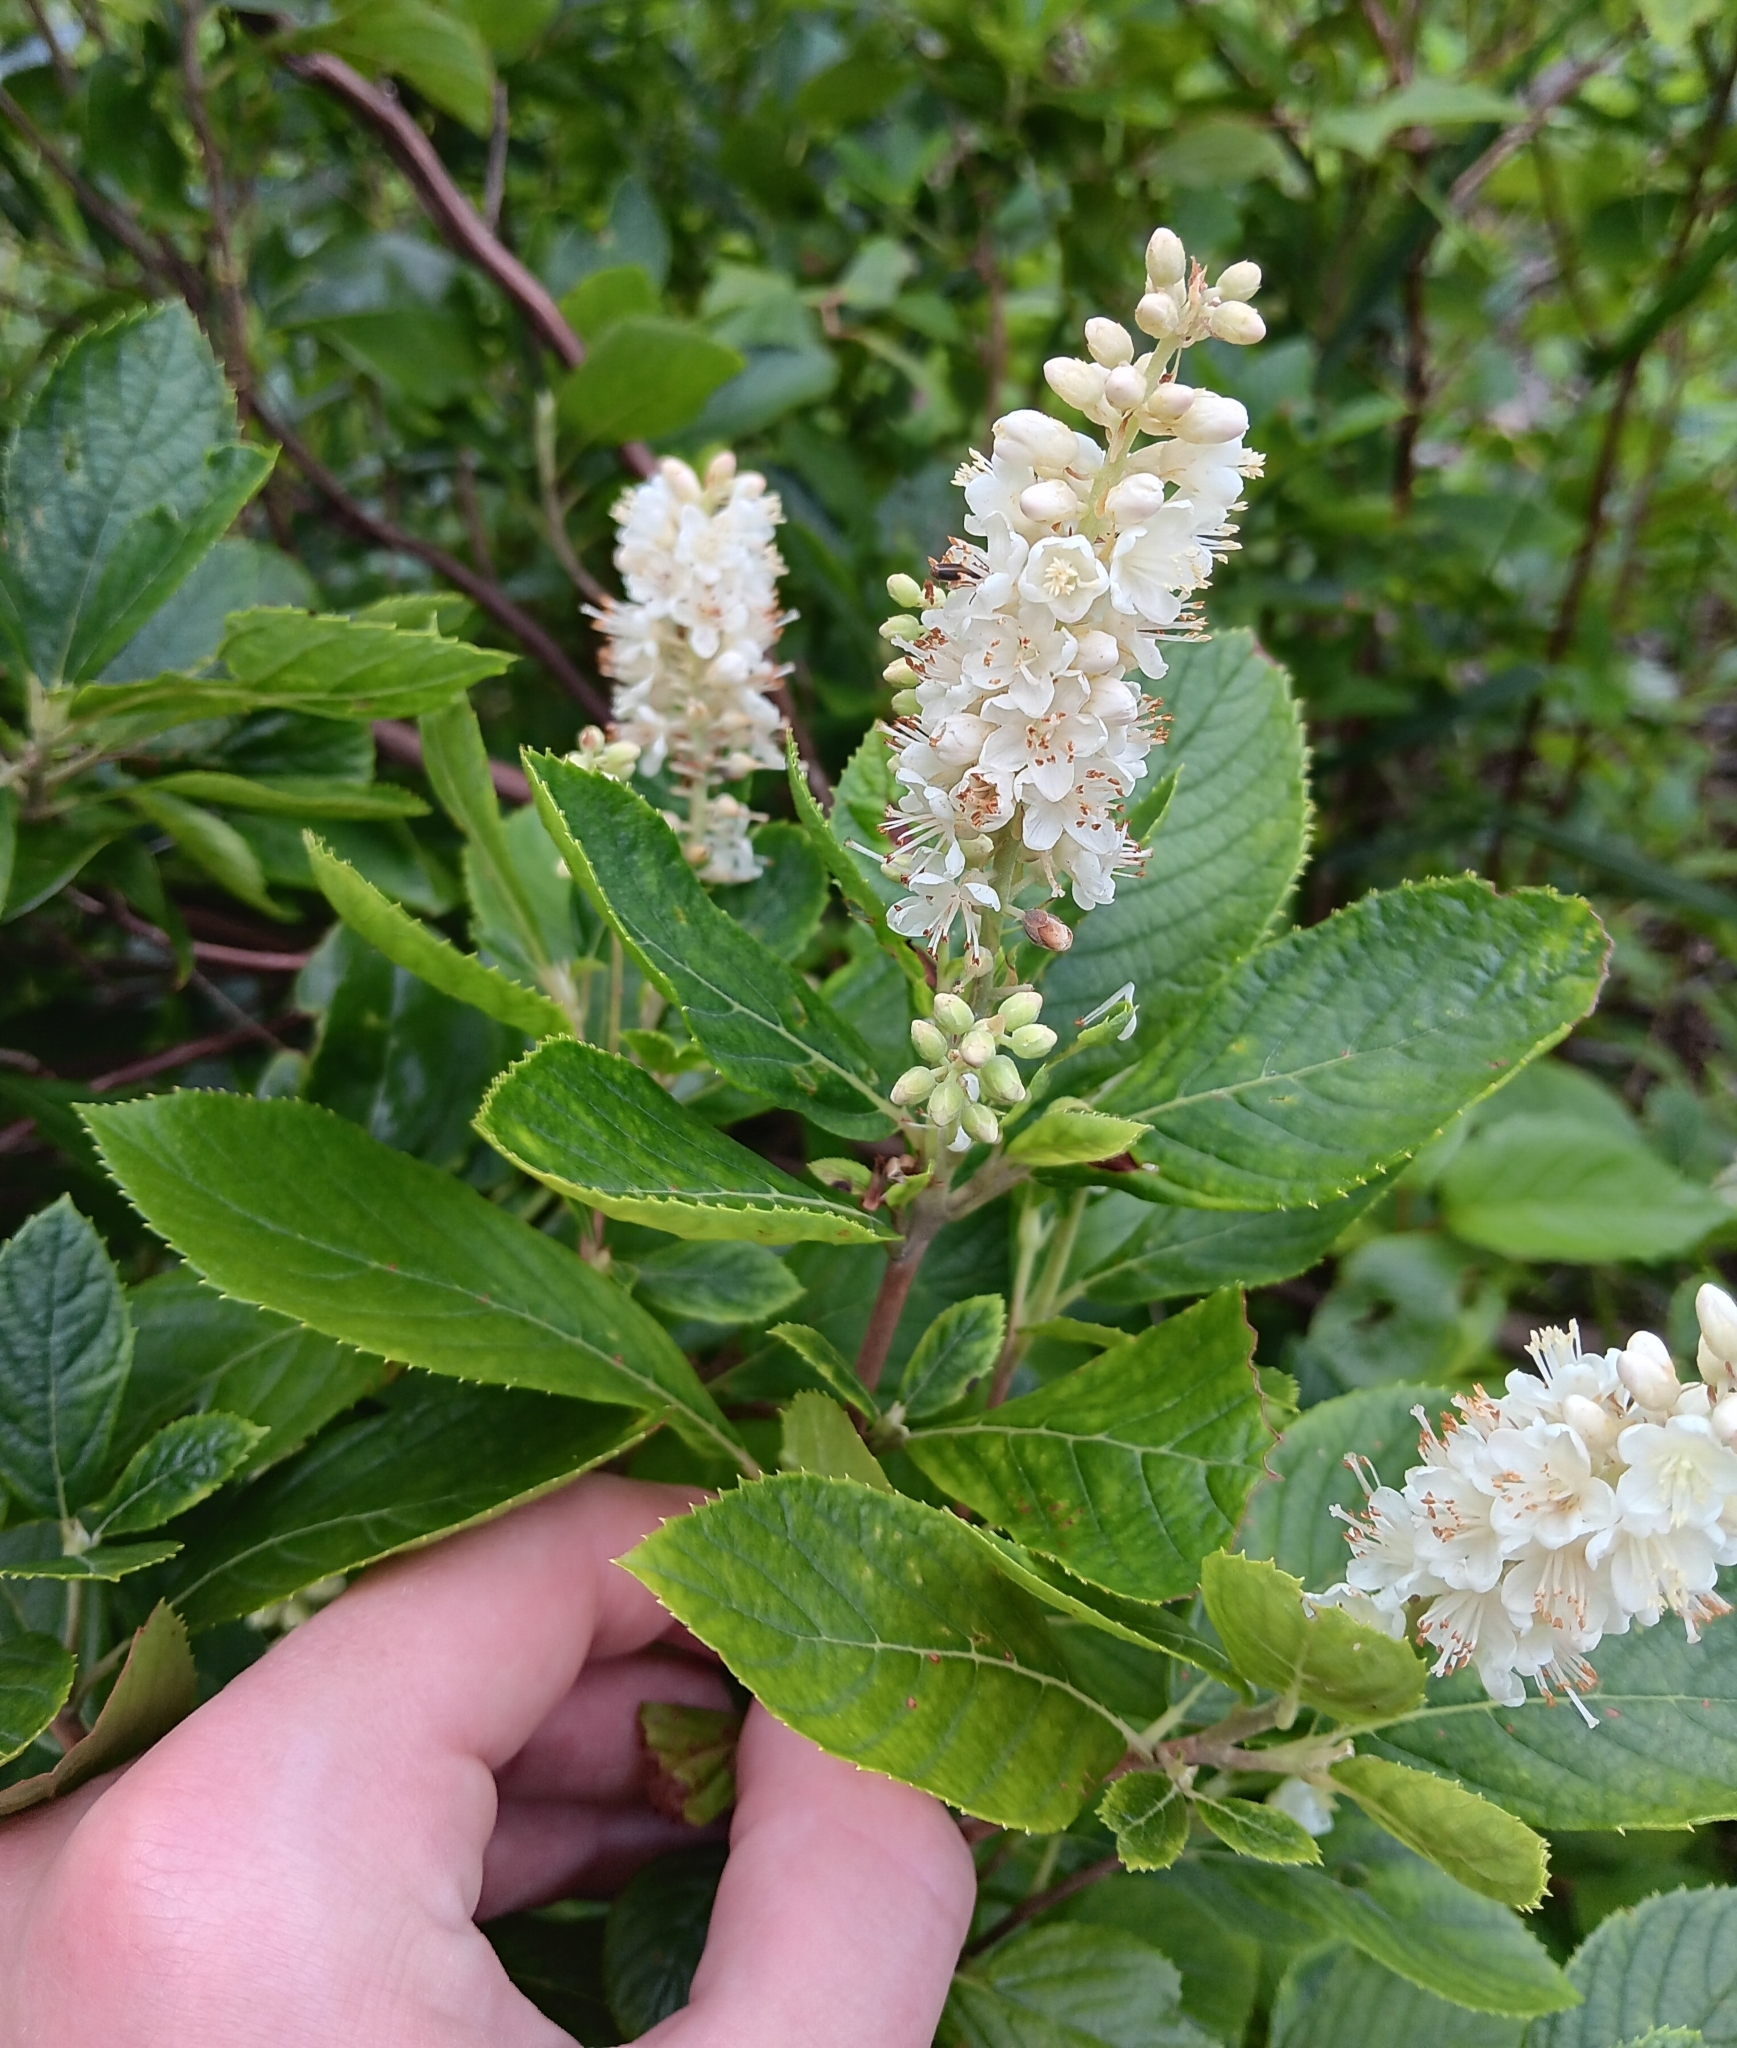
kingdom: Plantae
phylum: Tracheophyta
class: Magnoliopsida
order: Ericales
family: Clethraceae
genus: Clethra
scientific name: Clethra alnifolia
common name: Sweet pepperbush
